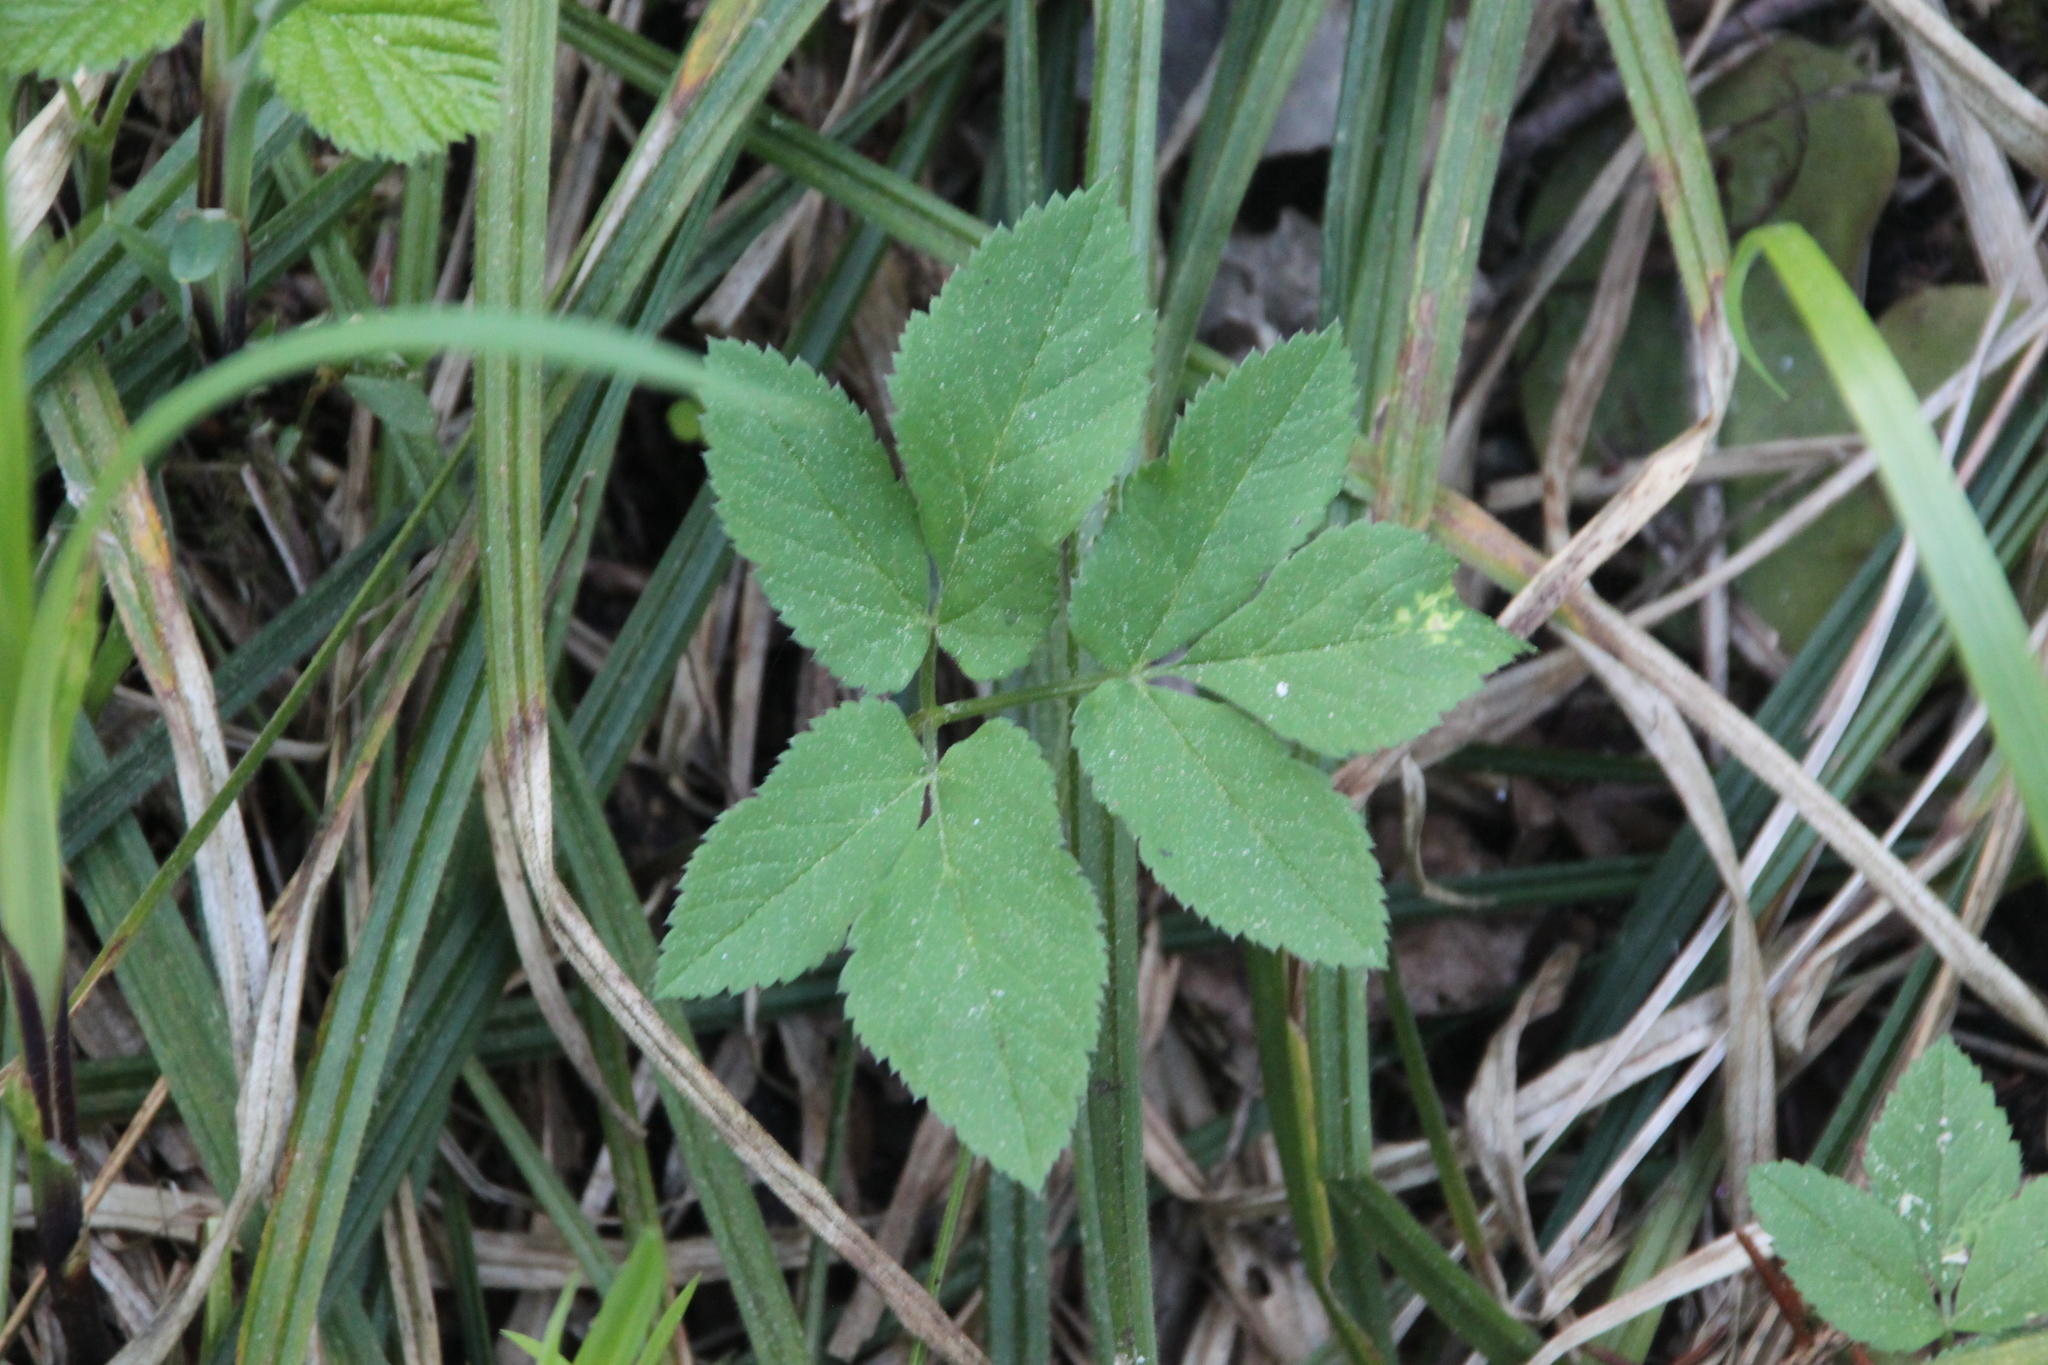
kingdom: Plantae
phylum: Tracheophyta
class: Magnoliopsida
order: Apiales
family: Apiaceae
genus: Aegopodium
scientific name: Aegopodium podagraria
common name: Ground-elder
